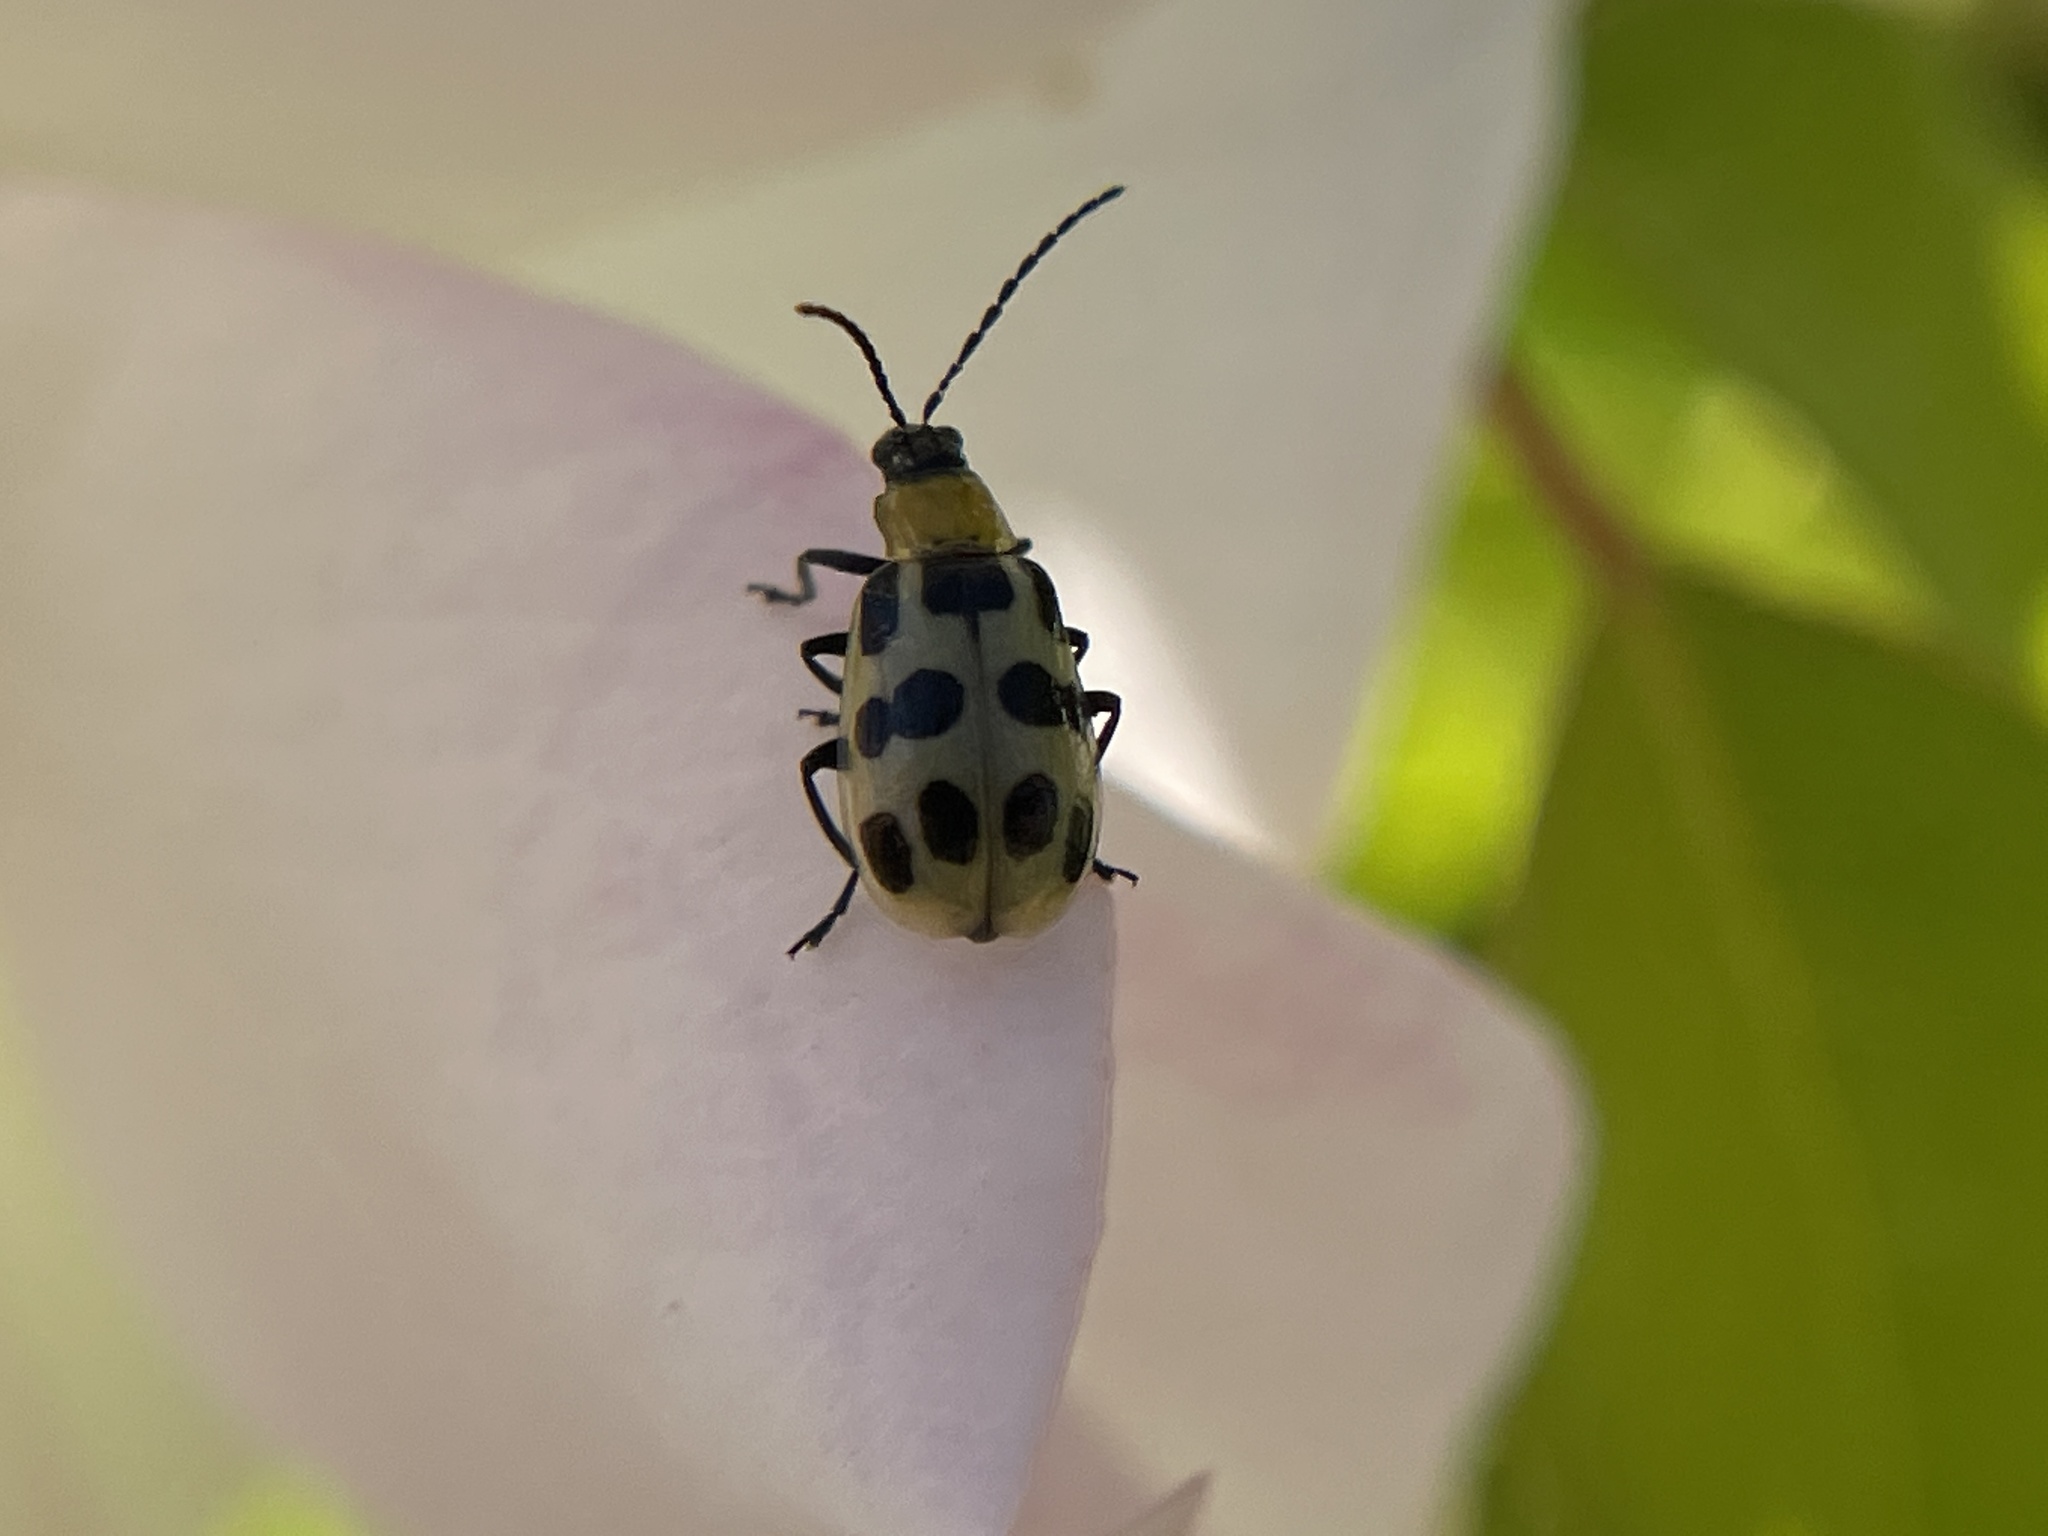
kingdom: Animalia
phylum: Arthropoda
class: Insecta
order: Coleoptera
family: Chrysomelidae
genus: Diabrotica
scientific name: Diabrotica undecimpunctata
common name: Spotted cucumber beetle
